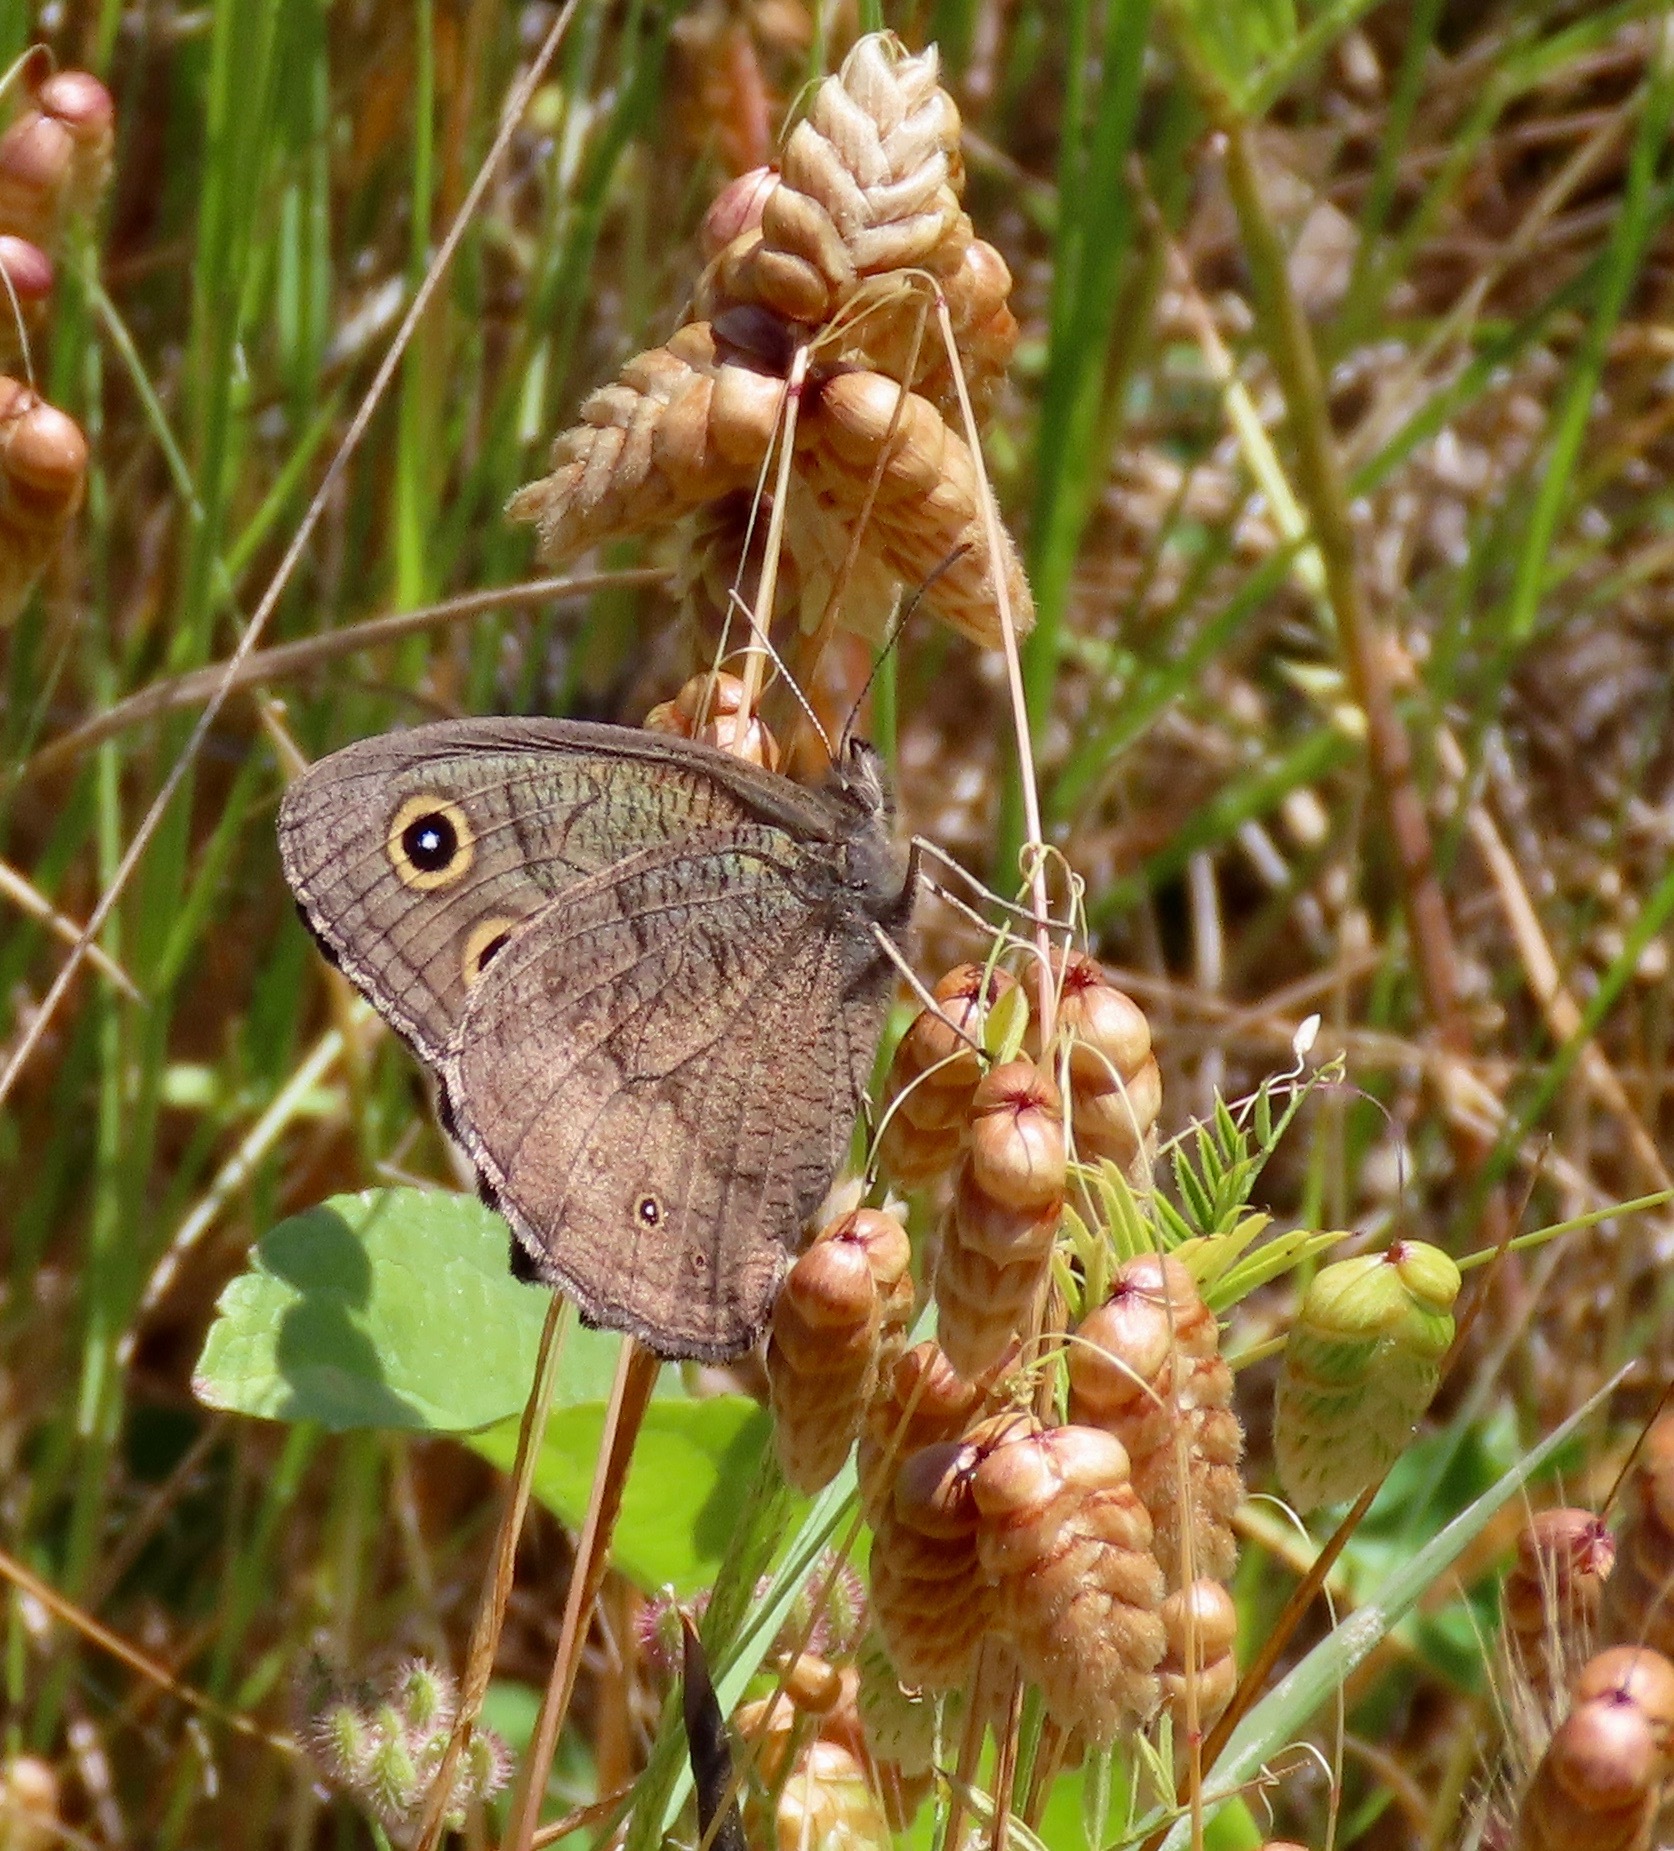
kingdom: Animalia
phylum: Arthropoda
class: Insecta
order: Lepidoptera
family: Nymphalidae
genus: Cercyonis
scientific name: Cercyonis pegala
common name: Common wood-nymph
